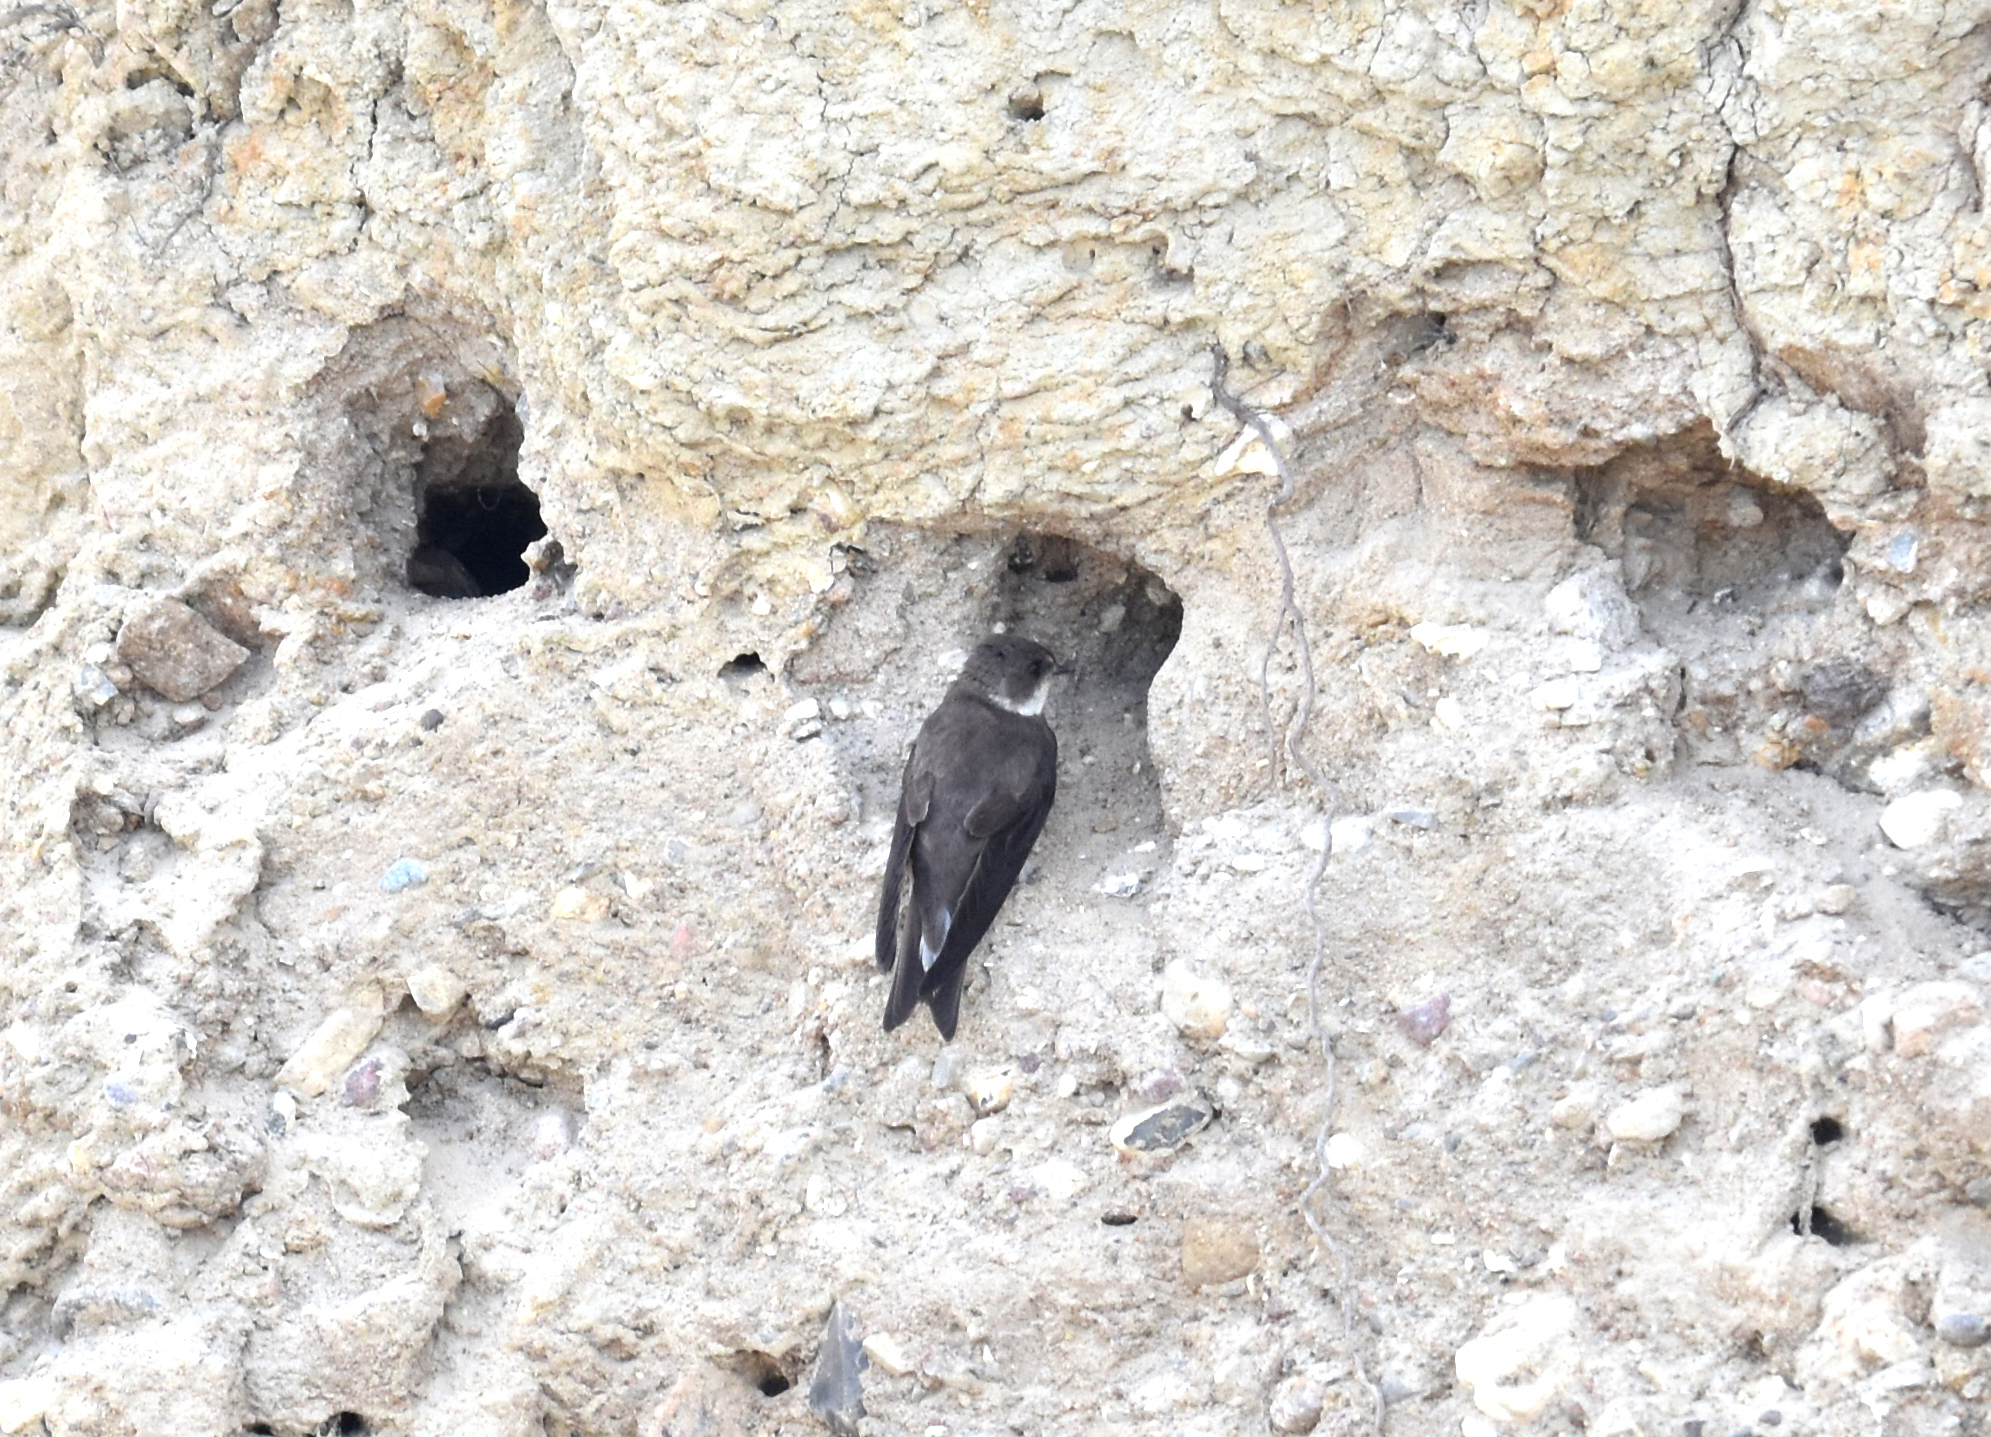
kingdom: Animalia
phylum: Chordata
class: Aves
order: Passeriformes
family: Hirundinidae
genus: Riparia
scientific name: Riparia riparia
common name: Sand martin
